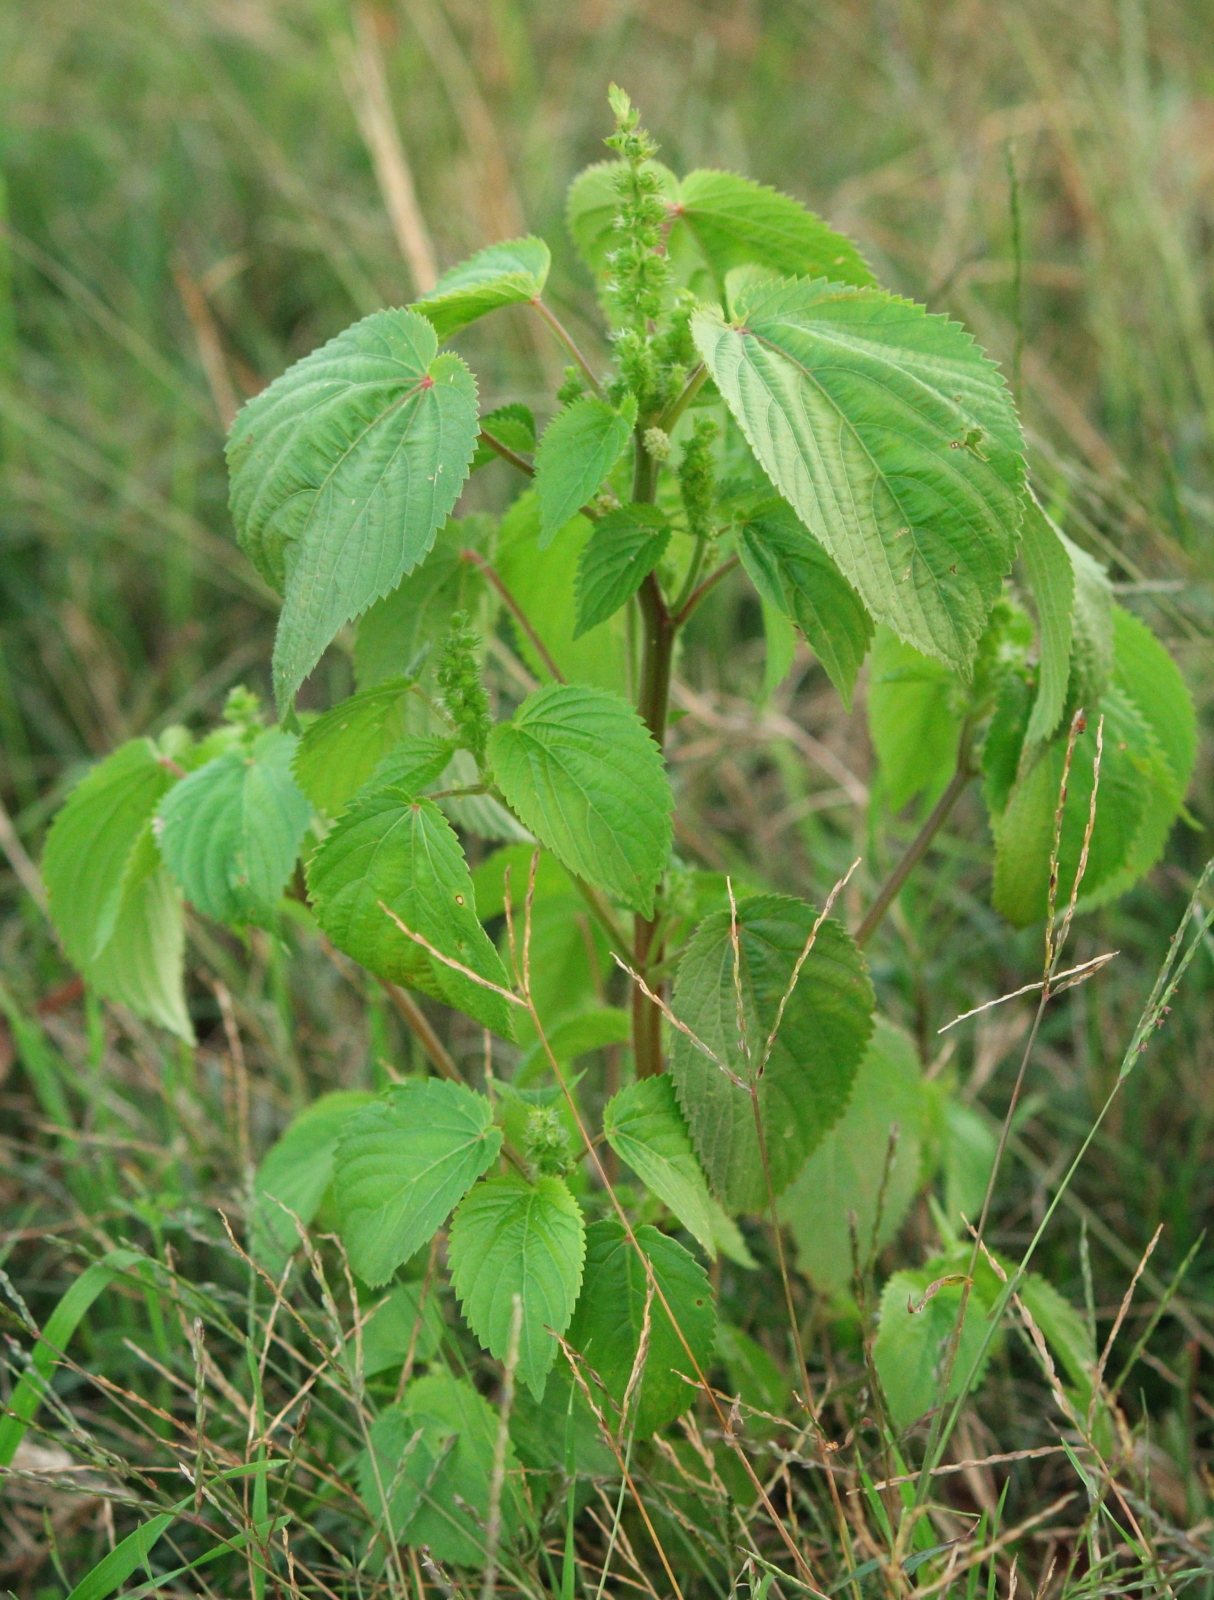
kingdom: Plantae
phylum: Tracheophyta
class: Magnoliopsida
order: Malpighiales
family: Euphorbiaceae
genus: Acalypha
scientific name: Acalypha ostryifolia
